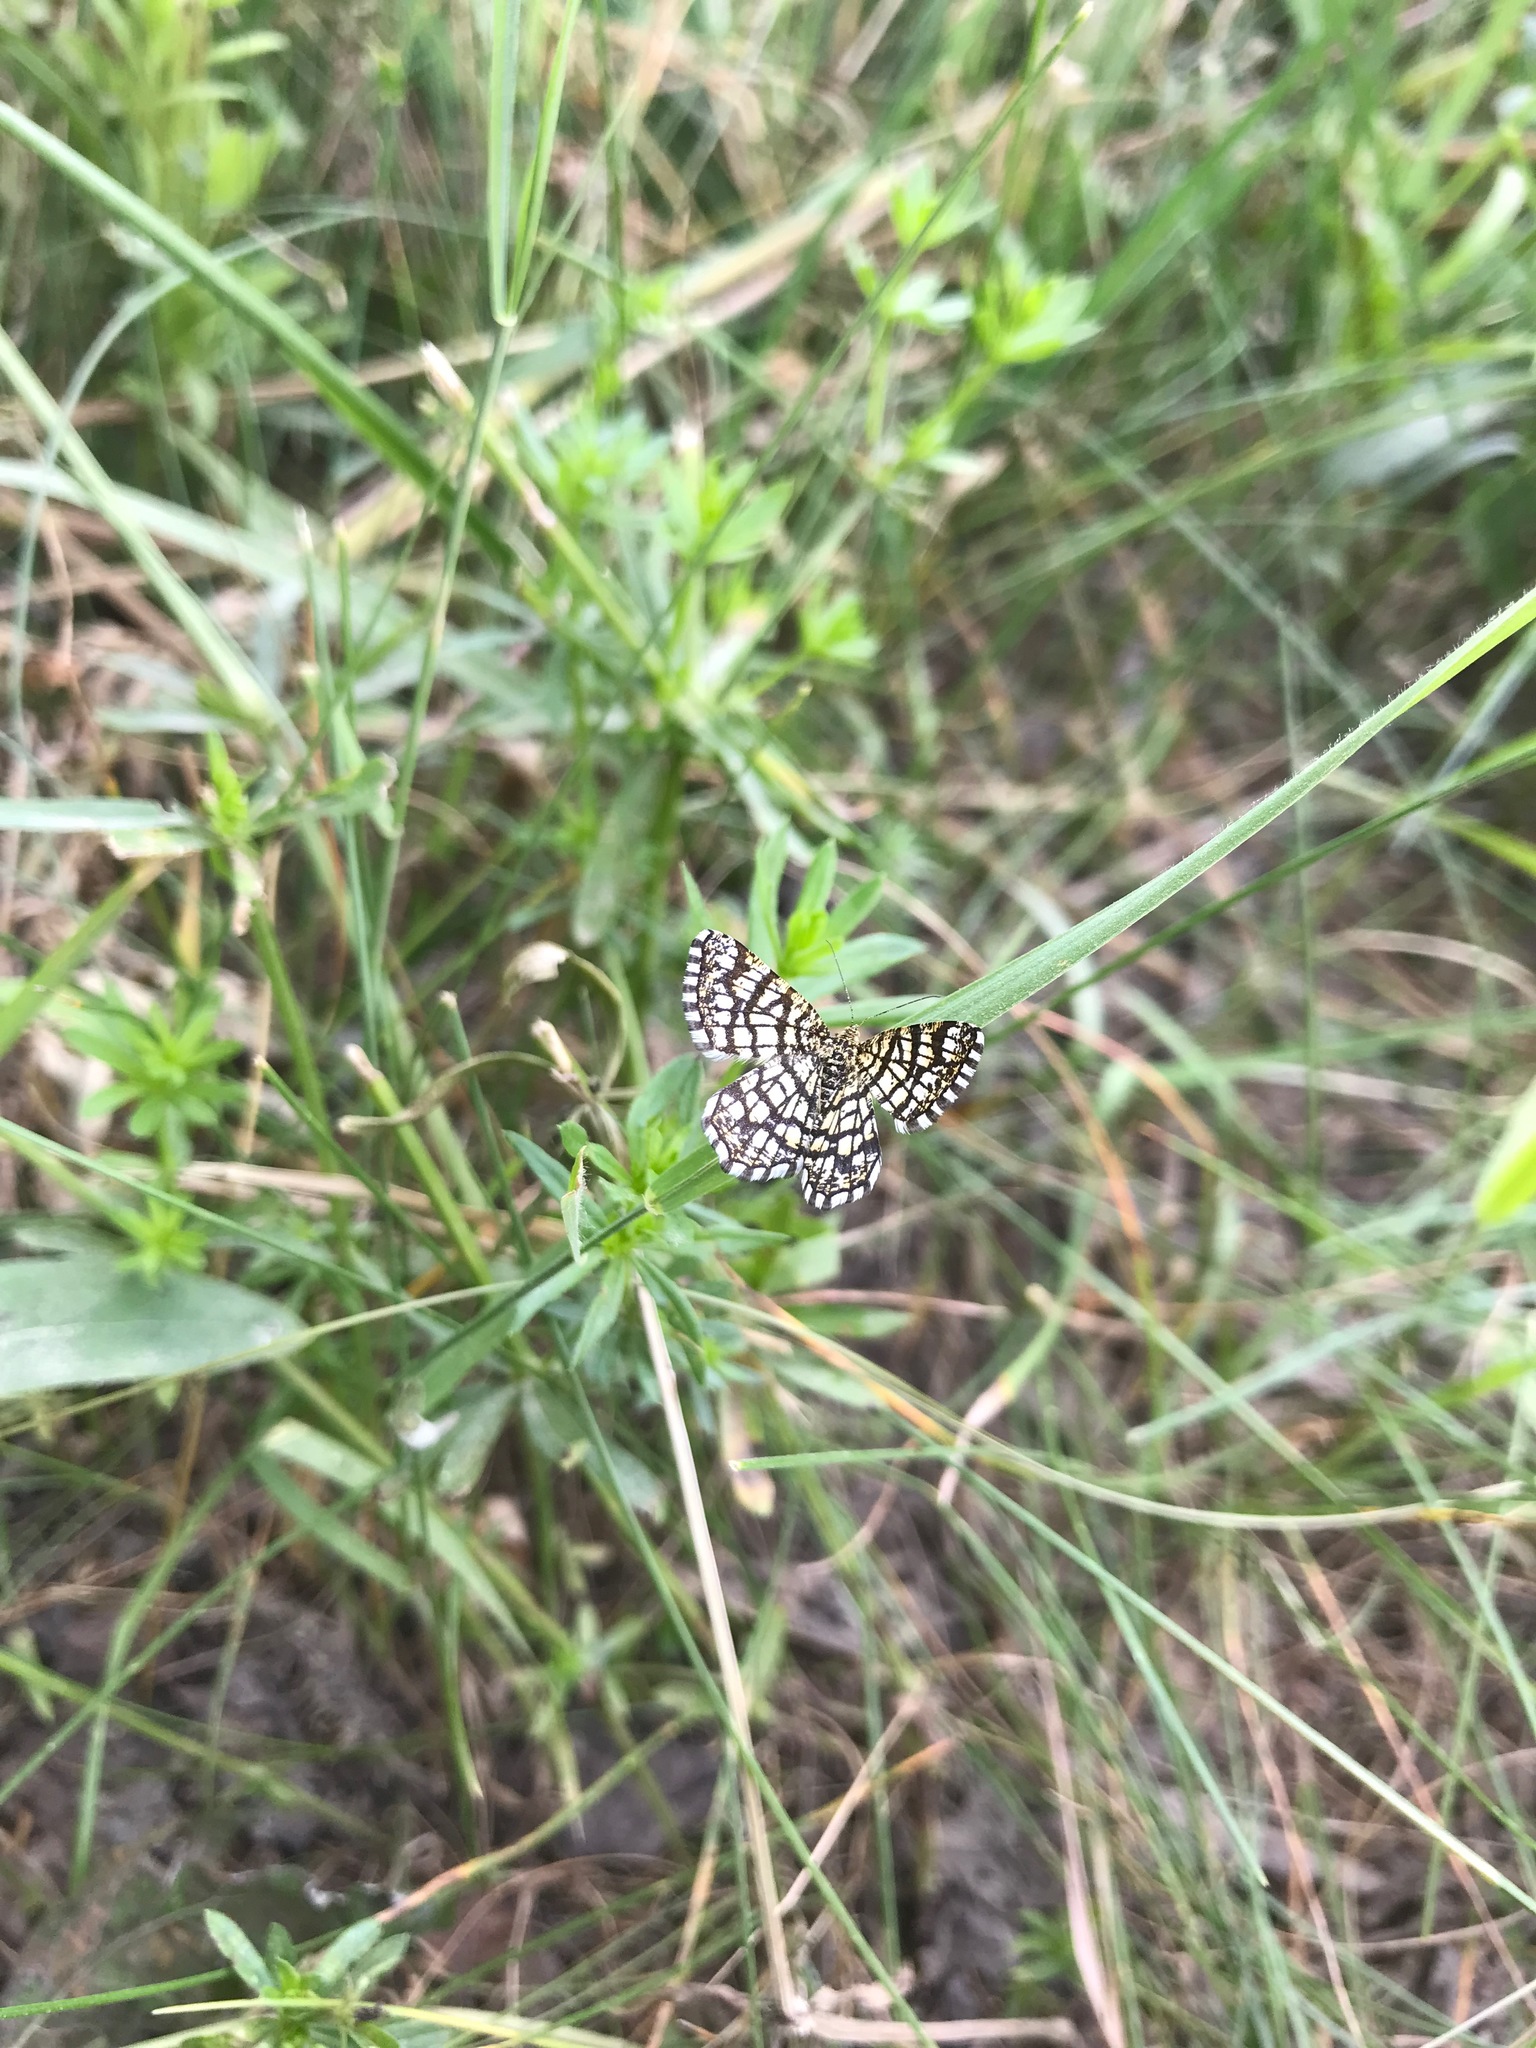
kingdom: Animalia
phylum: Arthropoda
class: Insecta
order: Lepidoptera
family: Geometridae
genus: Chiasmia
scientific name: Chiasmia clathrata
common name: Latticed heath
